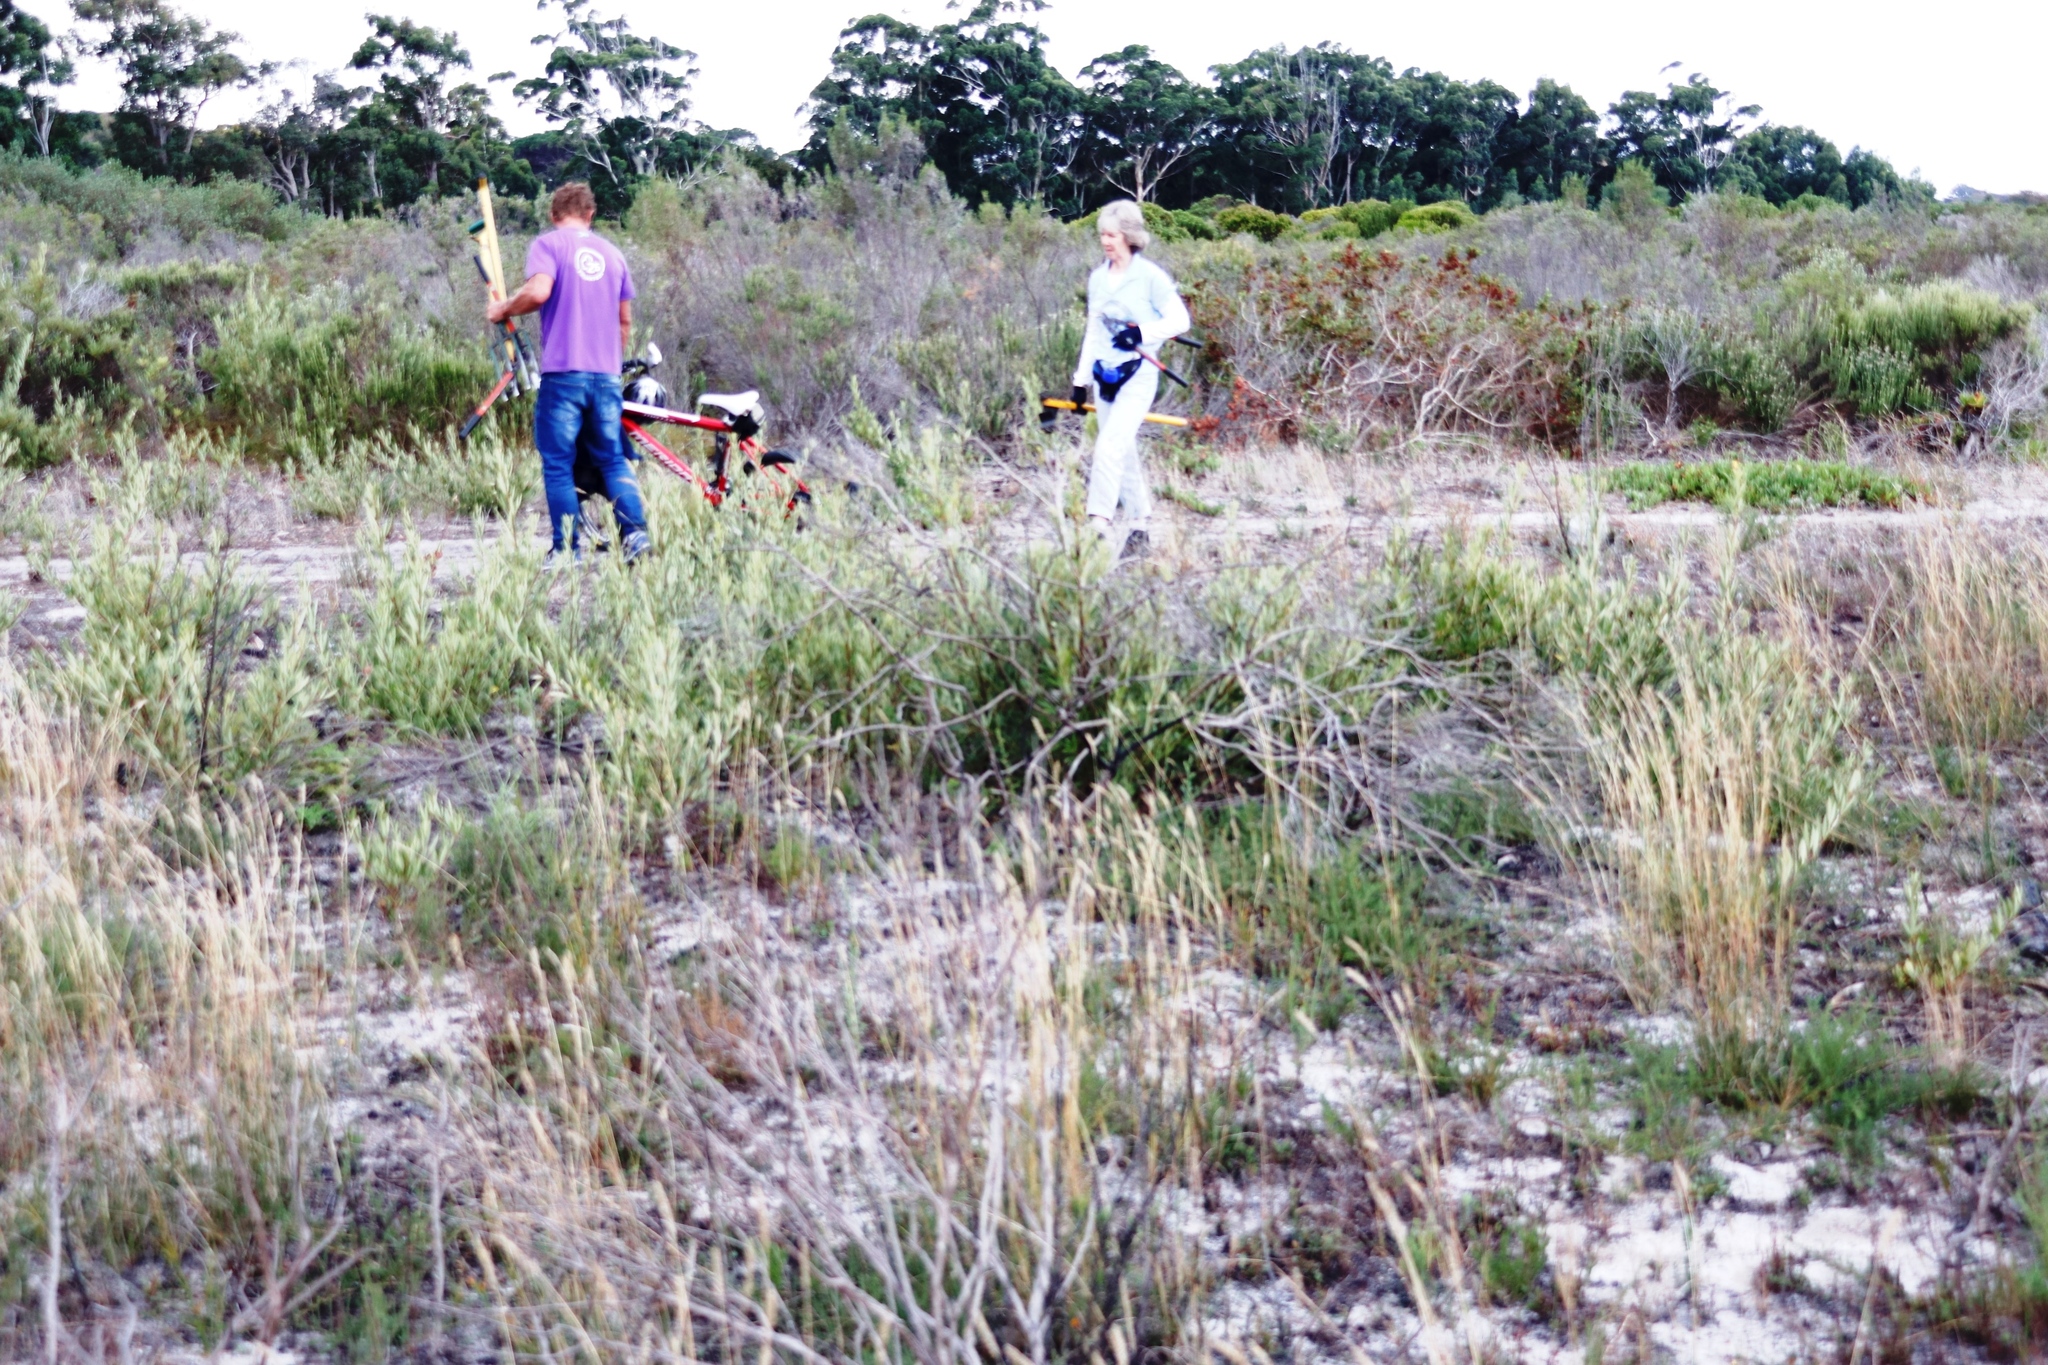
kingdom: Plantae
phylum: Tracheophyta
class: Magnoliopsida
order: Sapindales
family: Anacardiaceae
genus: Searsia
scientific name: Searsia laevigata
